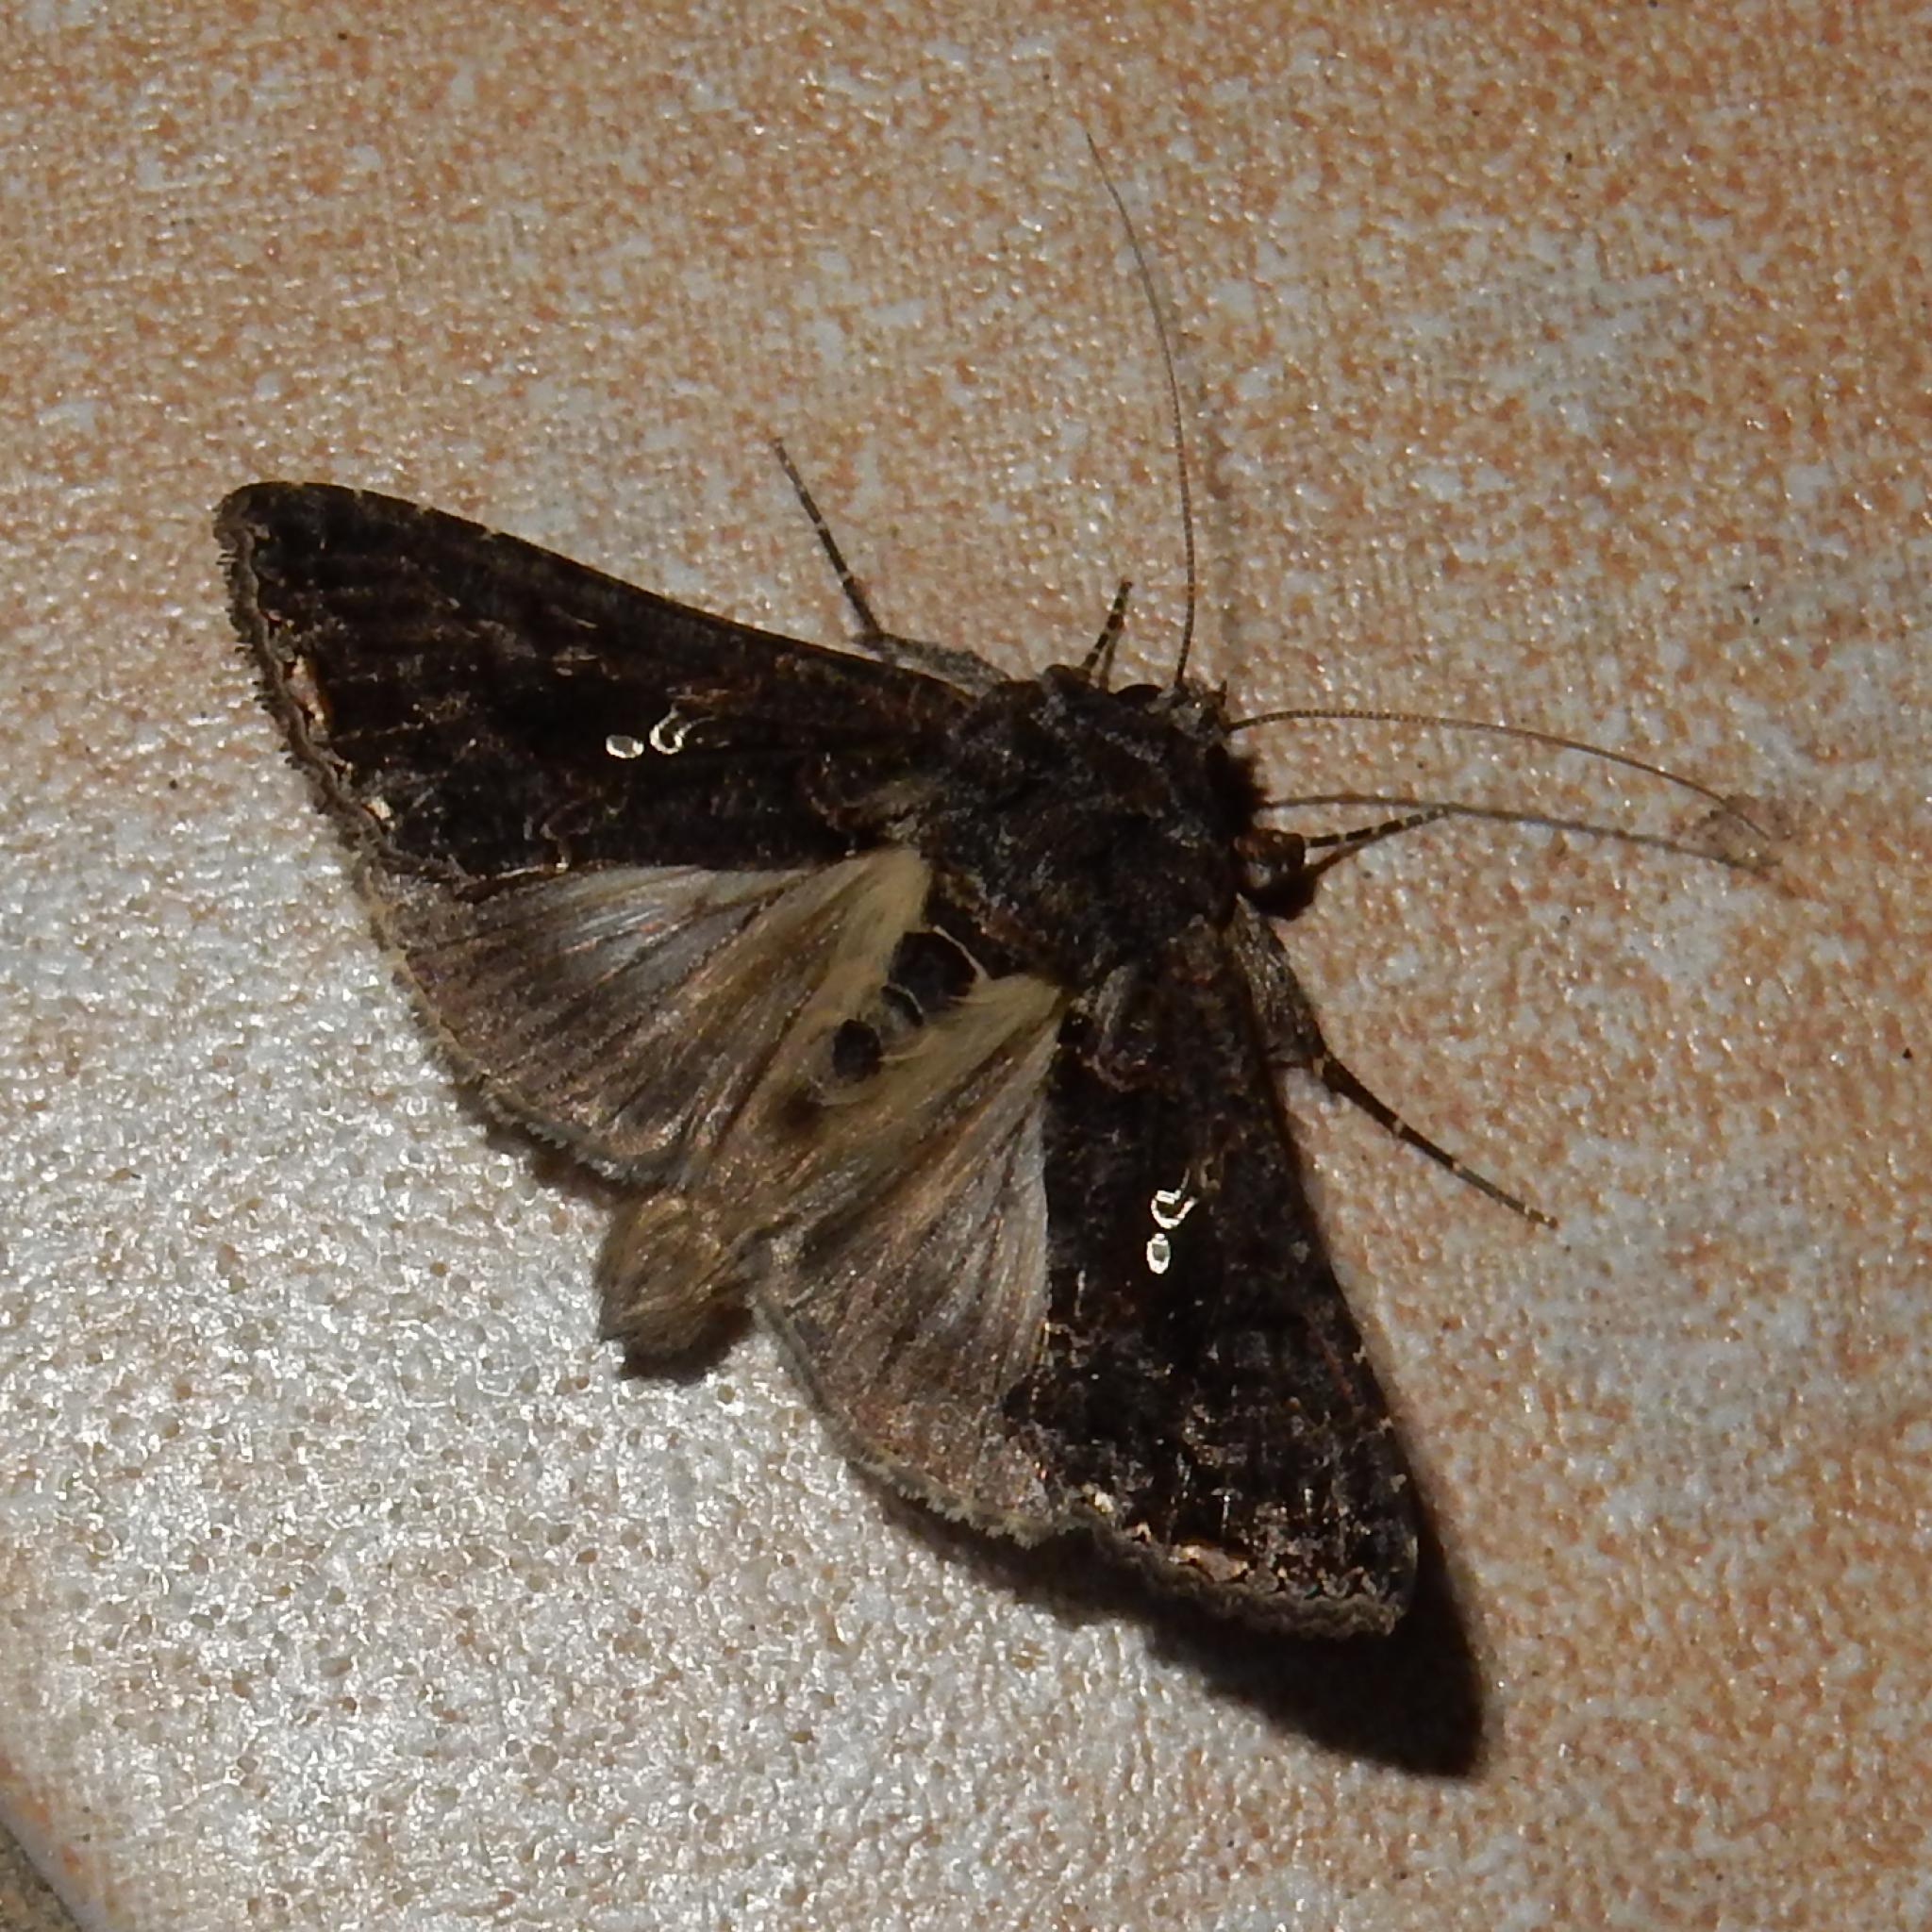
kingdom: Animalia
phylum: Arthropoda
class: Insecta
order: Lepidoptera
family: Noctuidae
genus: Ctenoplusia
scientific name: Ctenoplusia limbirena
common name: Scar bank gem
